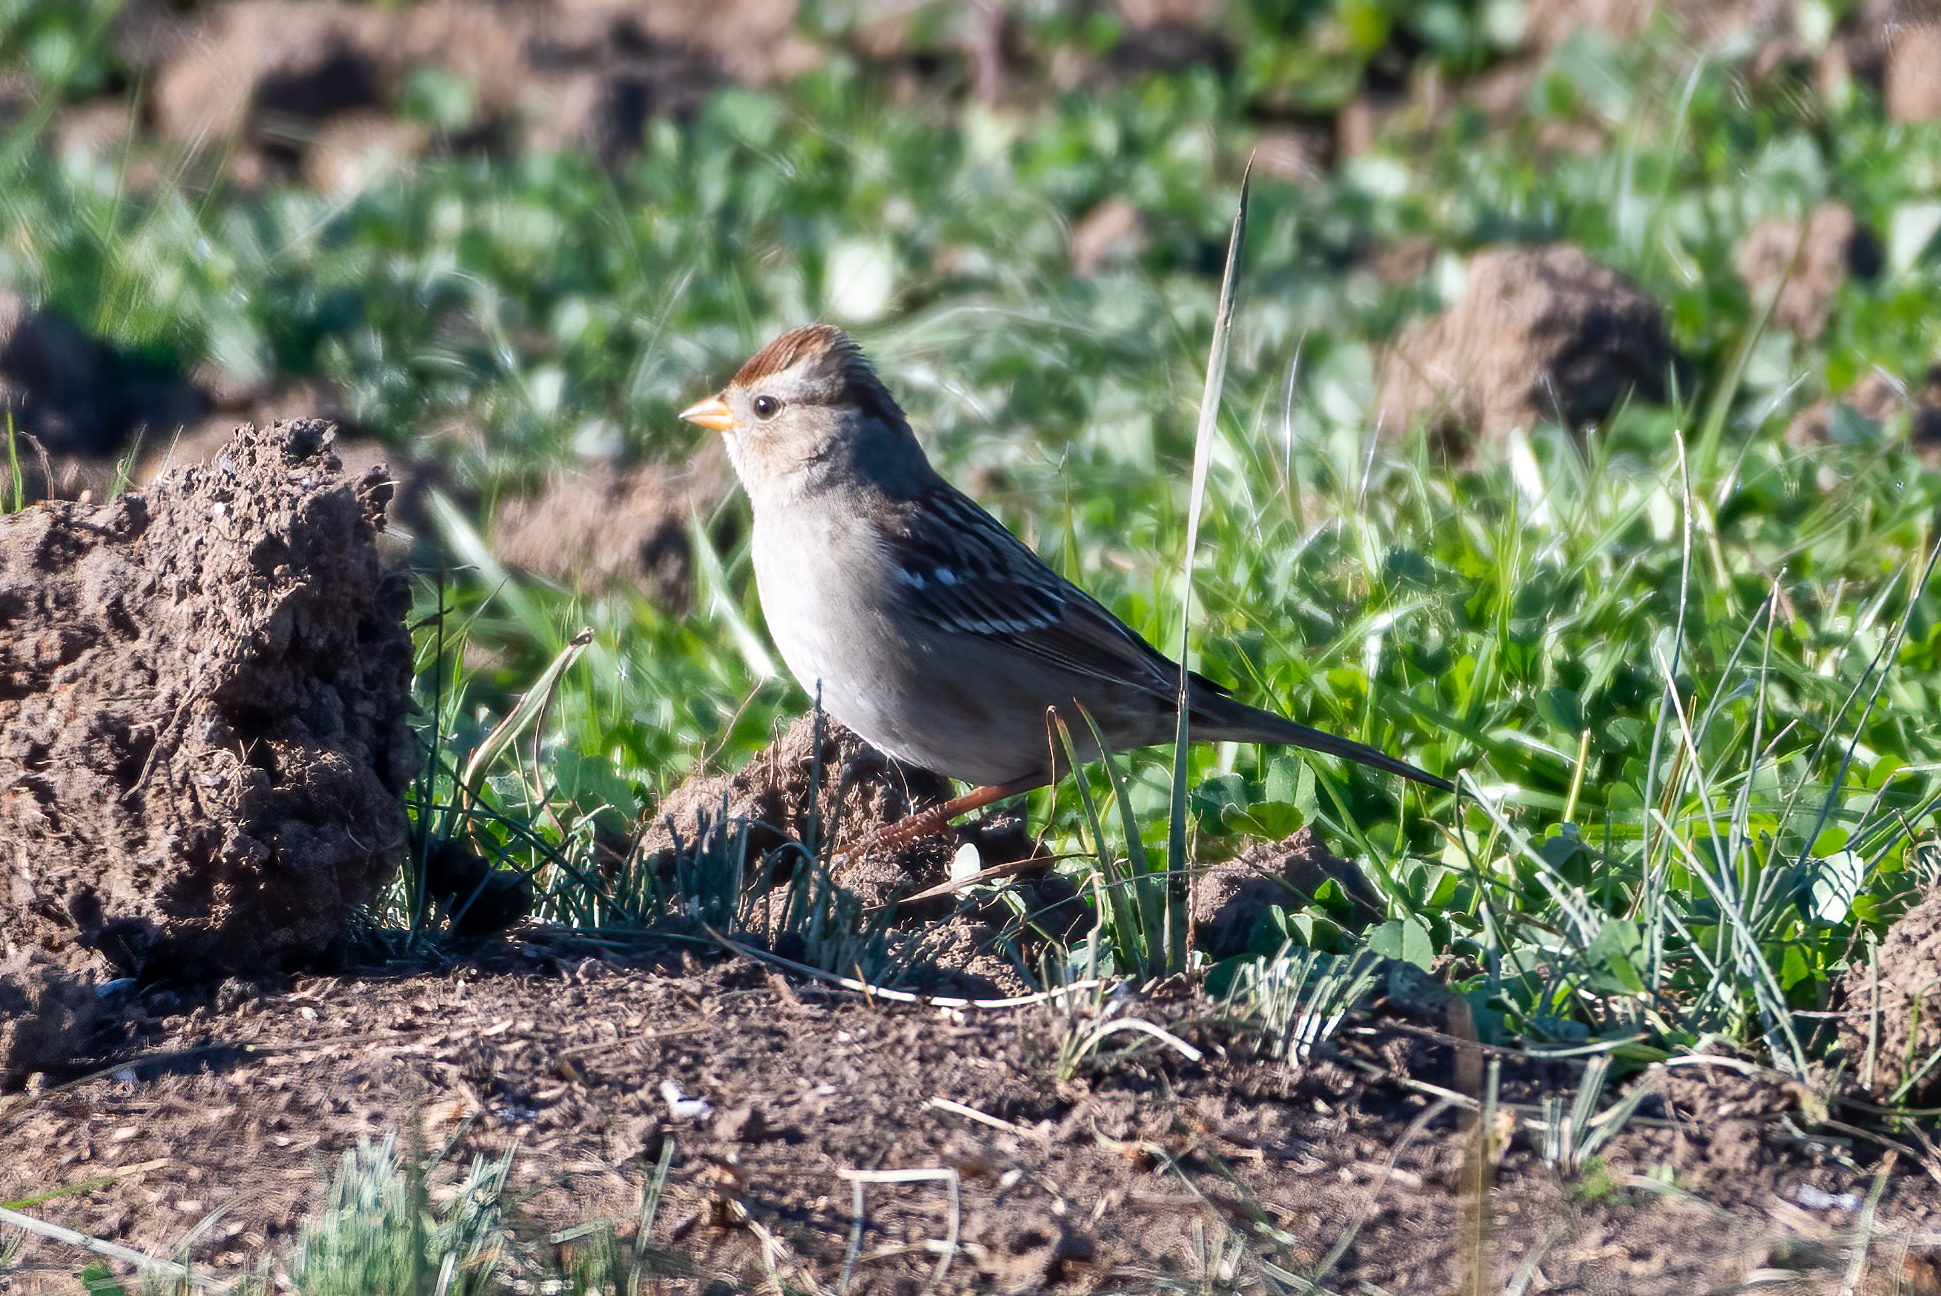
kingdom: Animalia
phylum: Chordata
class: Aves
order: Passeriformes
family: Passerellidae
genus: Zonotrichia
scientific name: Zonotrichia leucophrys
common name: White-crowned sparrow
